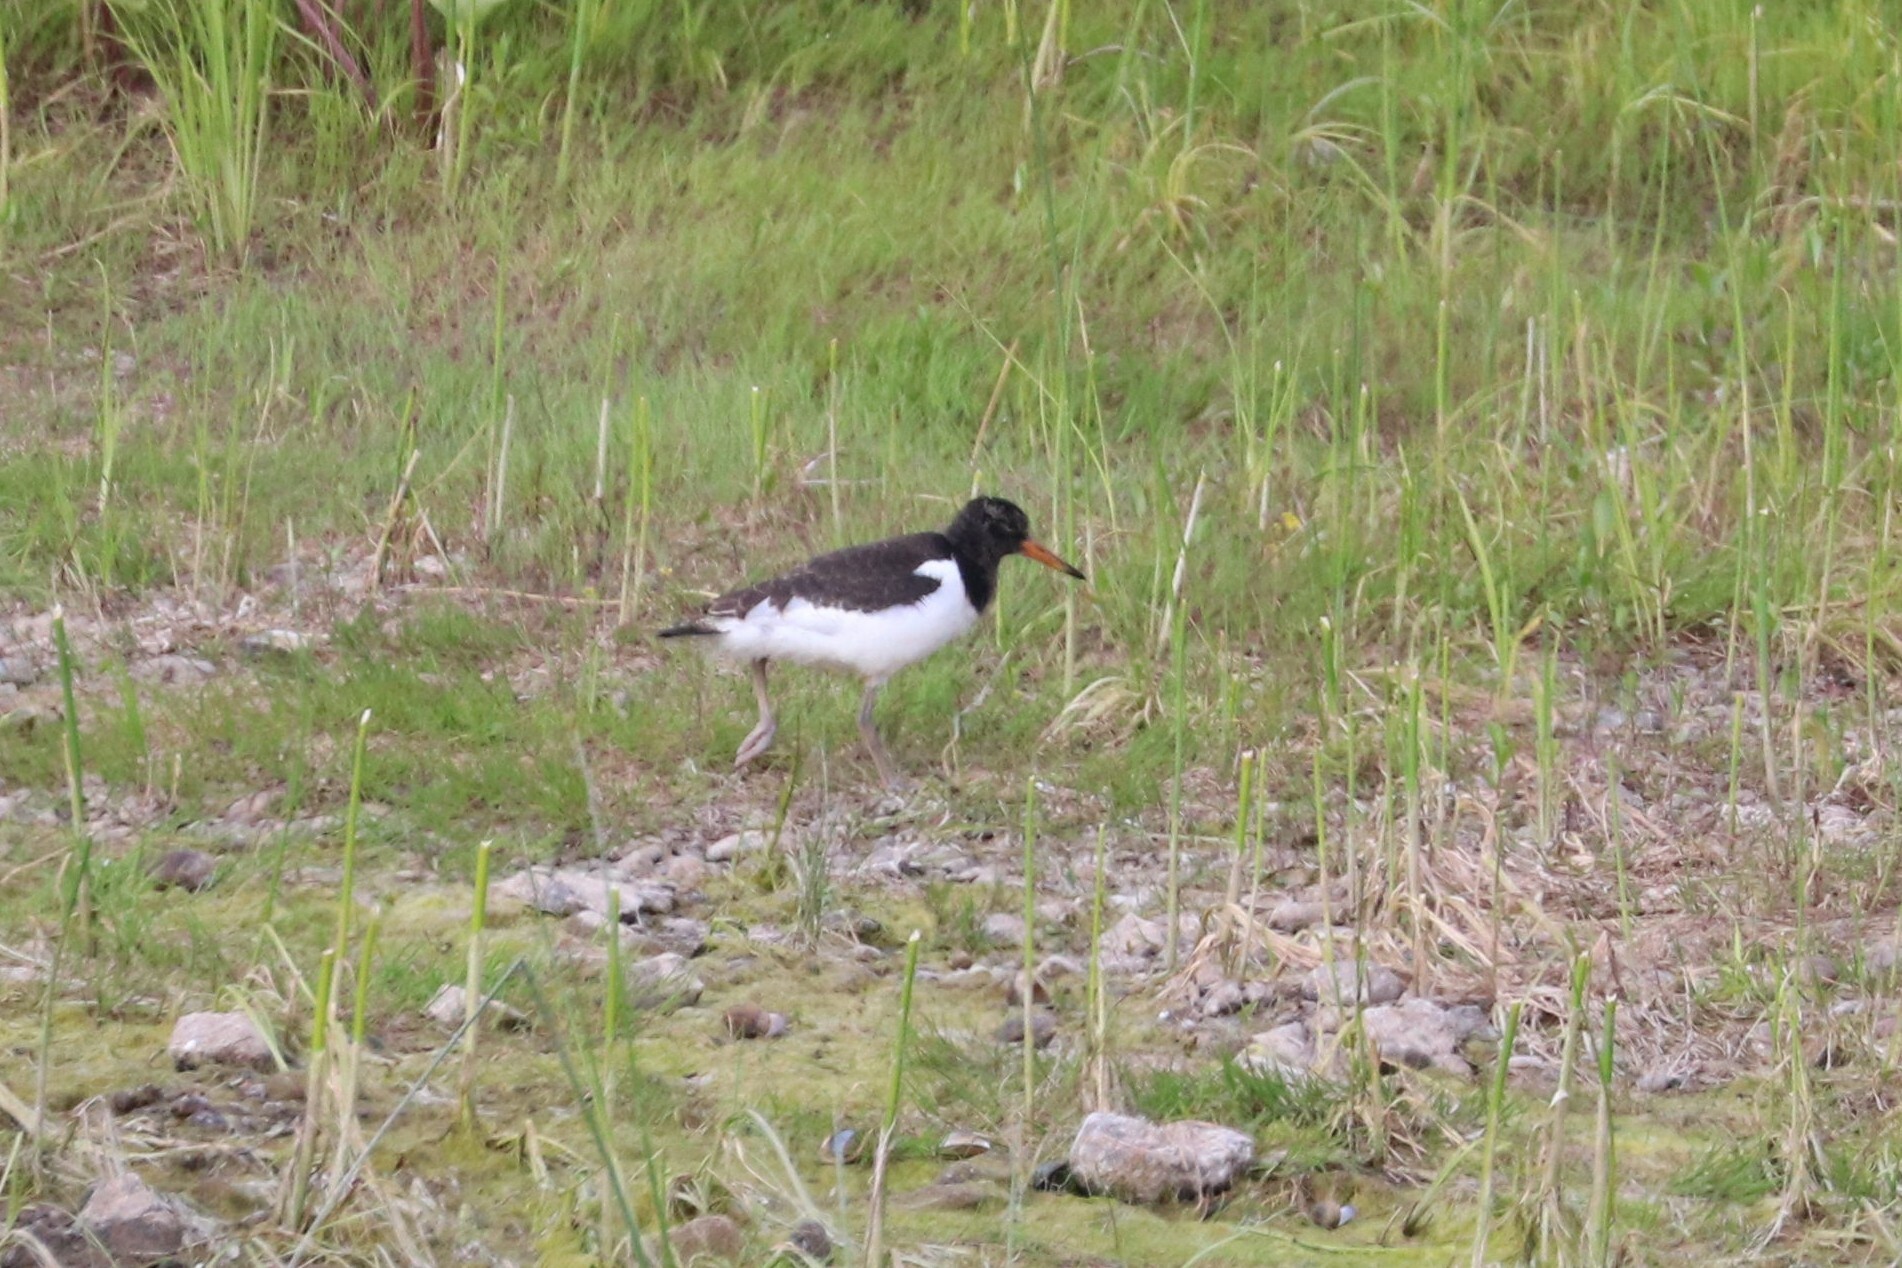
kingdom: Animalia
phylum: Chordata
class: Aves
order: Charadriiformes
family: Haematopodidae
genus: Haematopus
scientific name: Haematopus ostralegus
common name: Eurasian oystercatcher
